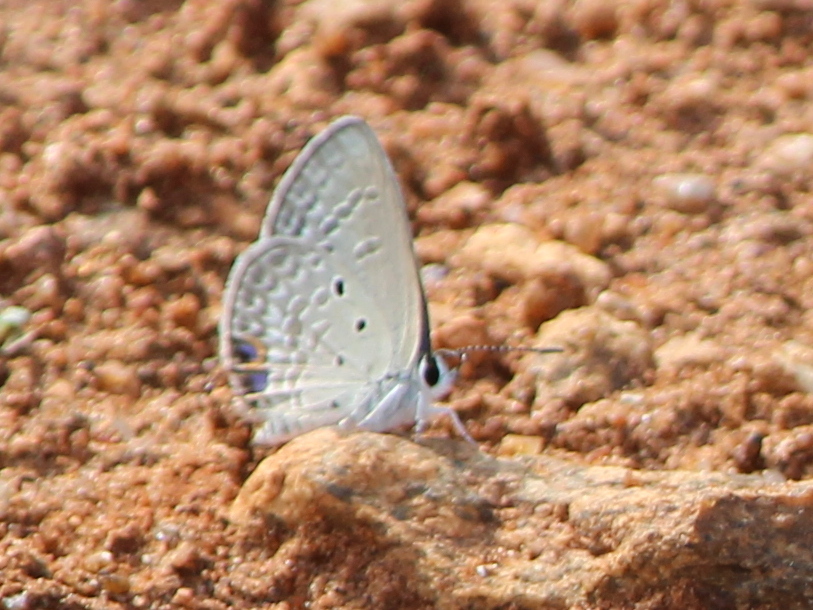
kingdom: Animalia
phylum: Arthropoda
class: Insecta
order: Lepidoptera
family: Lycaenidae
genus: Euchrysops
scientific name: Euchrysops cnejus
